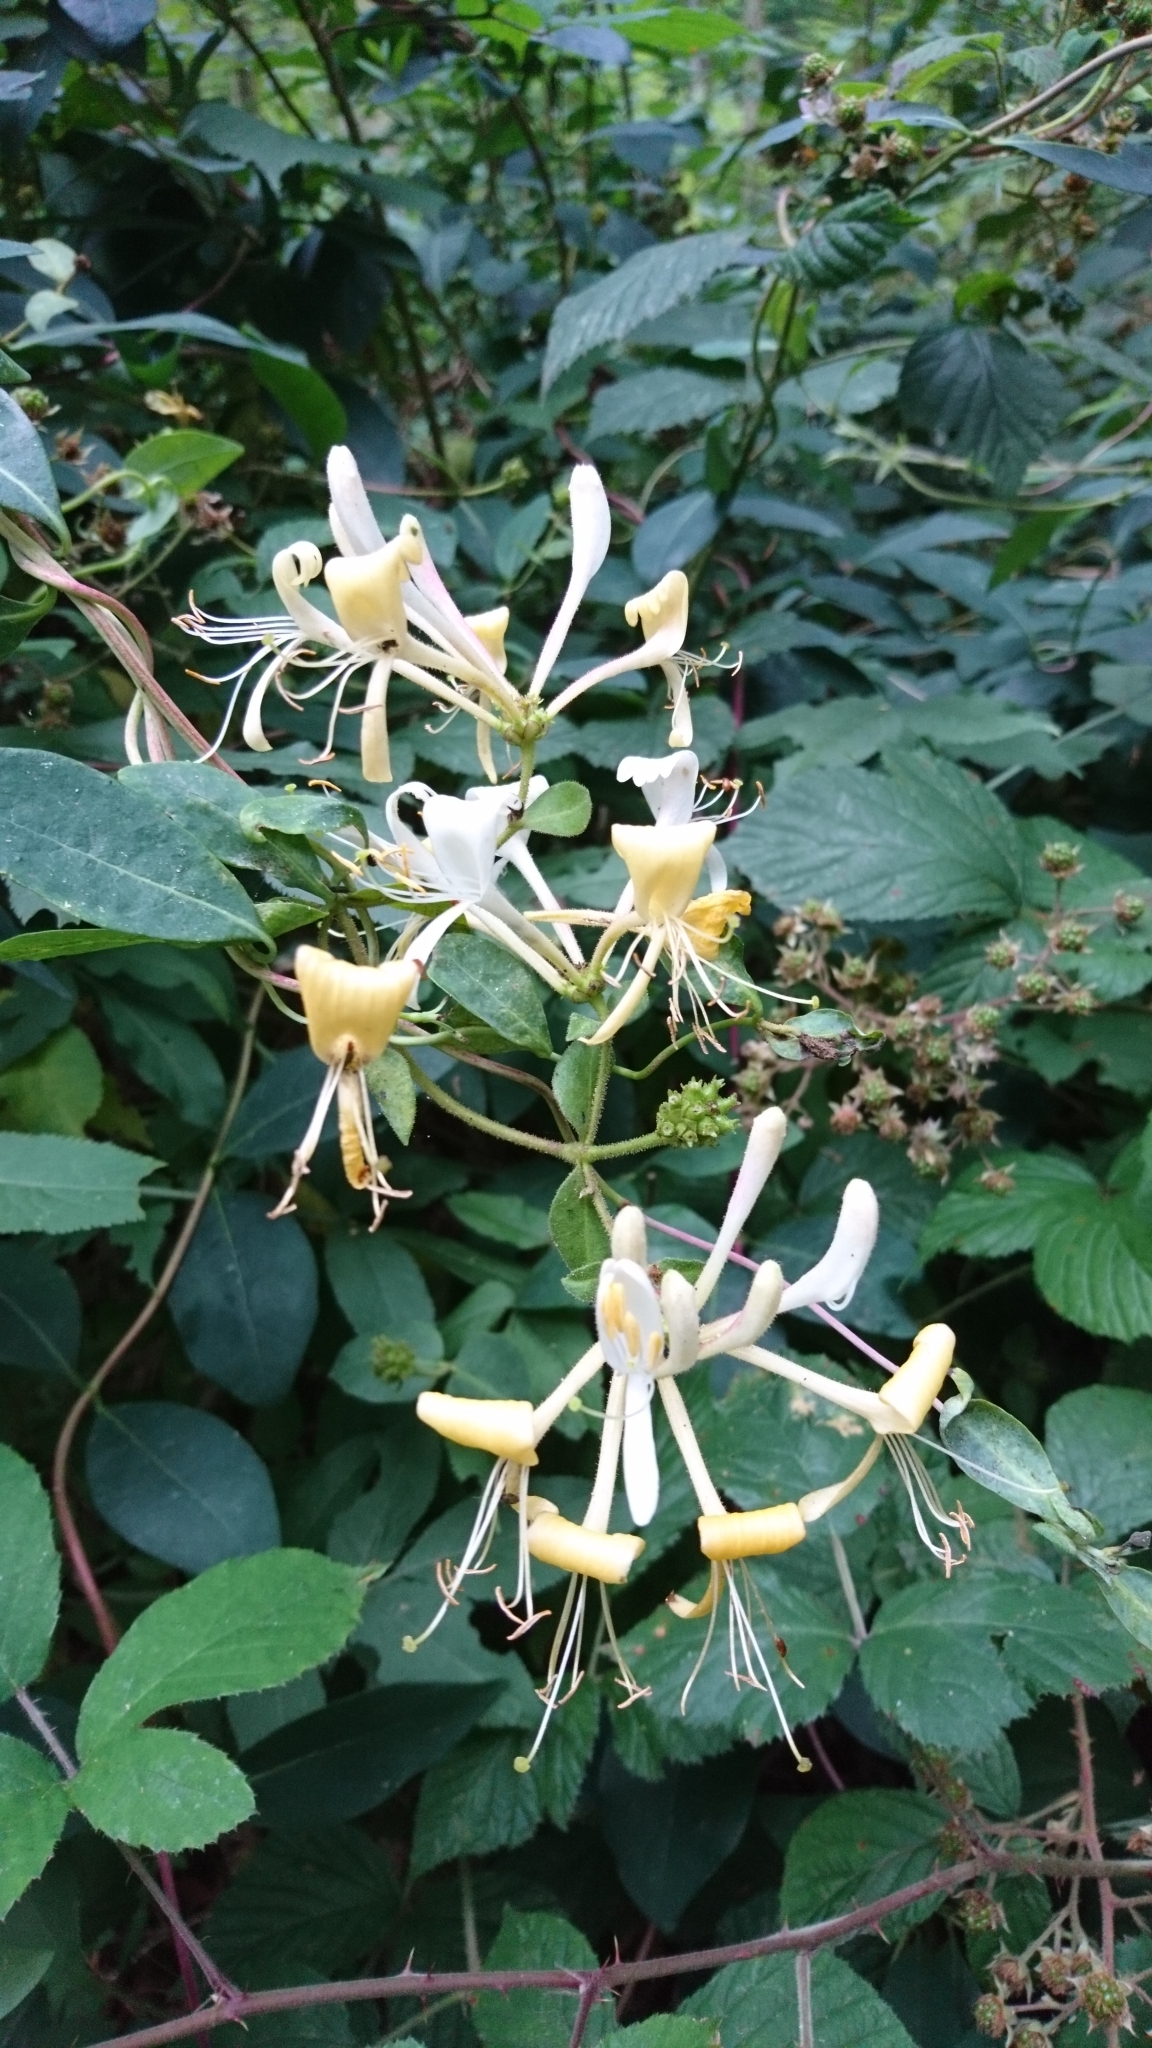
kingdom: Plantae
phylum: Tracheophyta
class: Magnoliopsida
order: Dipsacales
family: Caprifoliaceae
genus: Lonicera
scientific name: Lonicera periclymenum
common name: European honeysuckle
